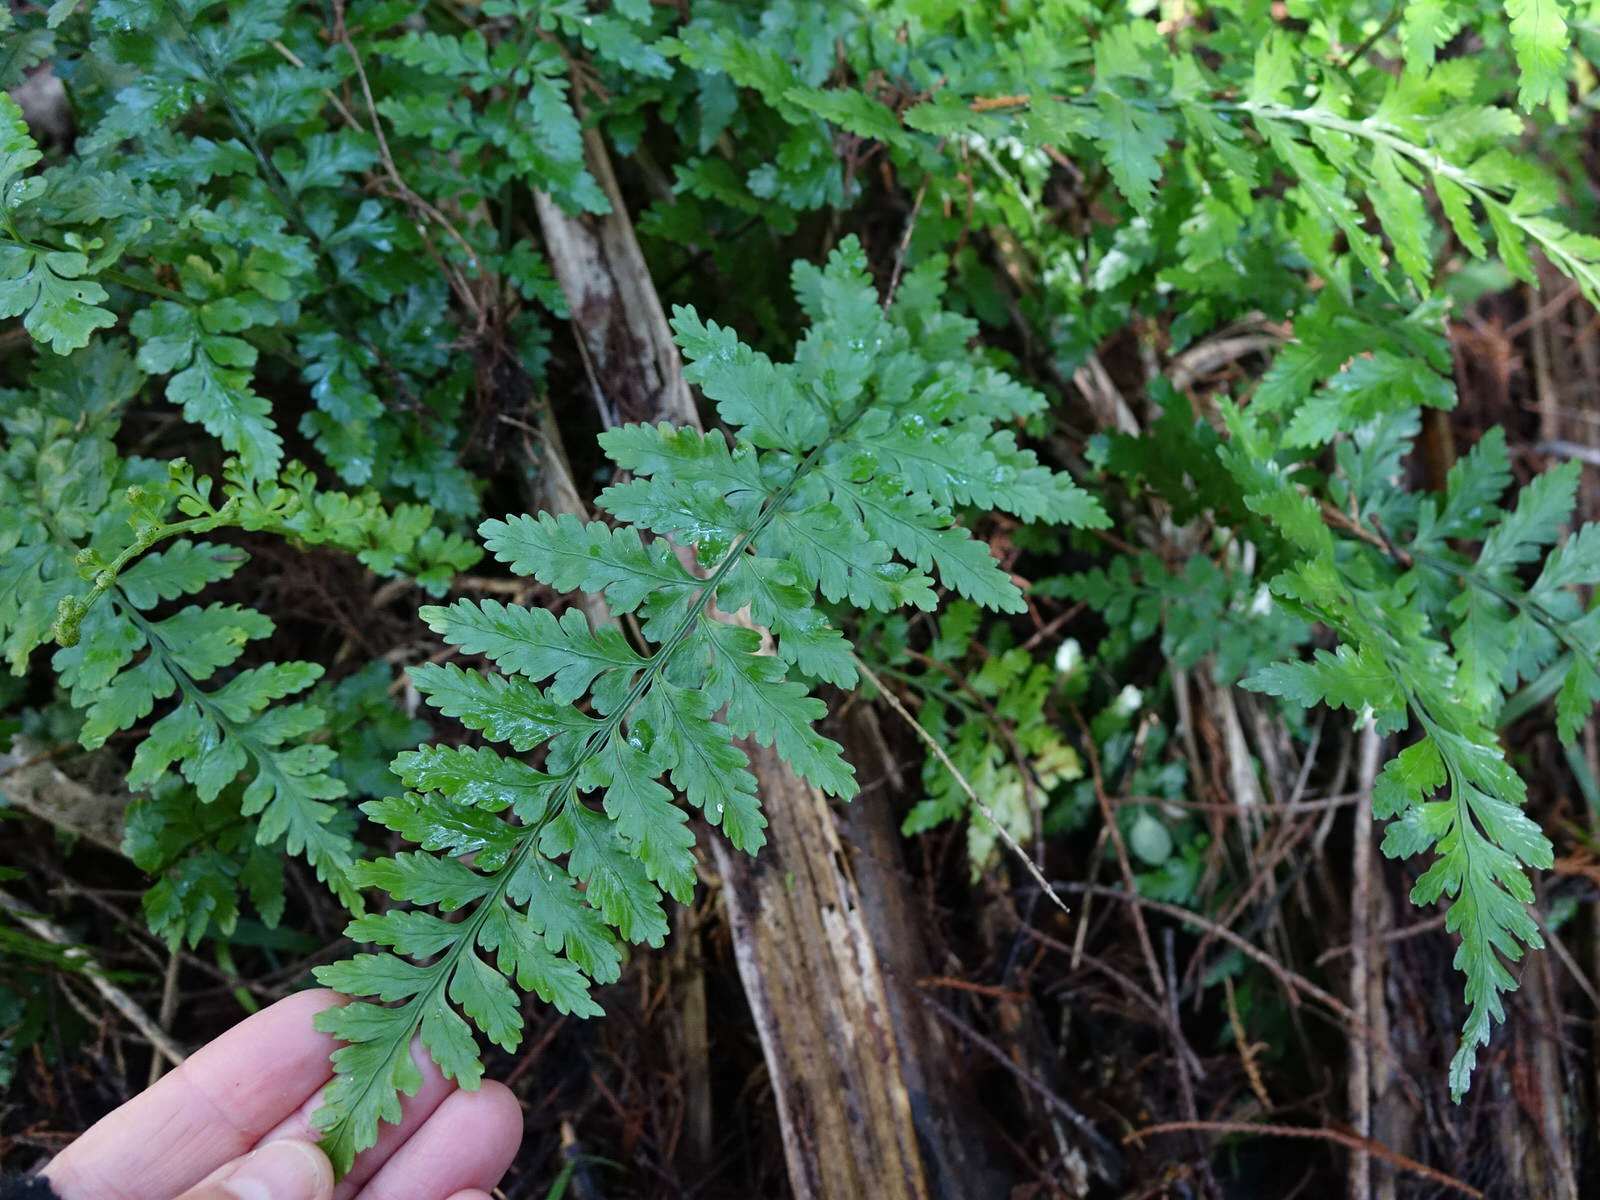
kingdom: Plantae
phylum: Tracheophyta
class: Polypodiopsida
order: Polypodiales
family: Aspleniaceae
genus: Asplenium
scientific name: Asplenium lamprophyllum
